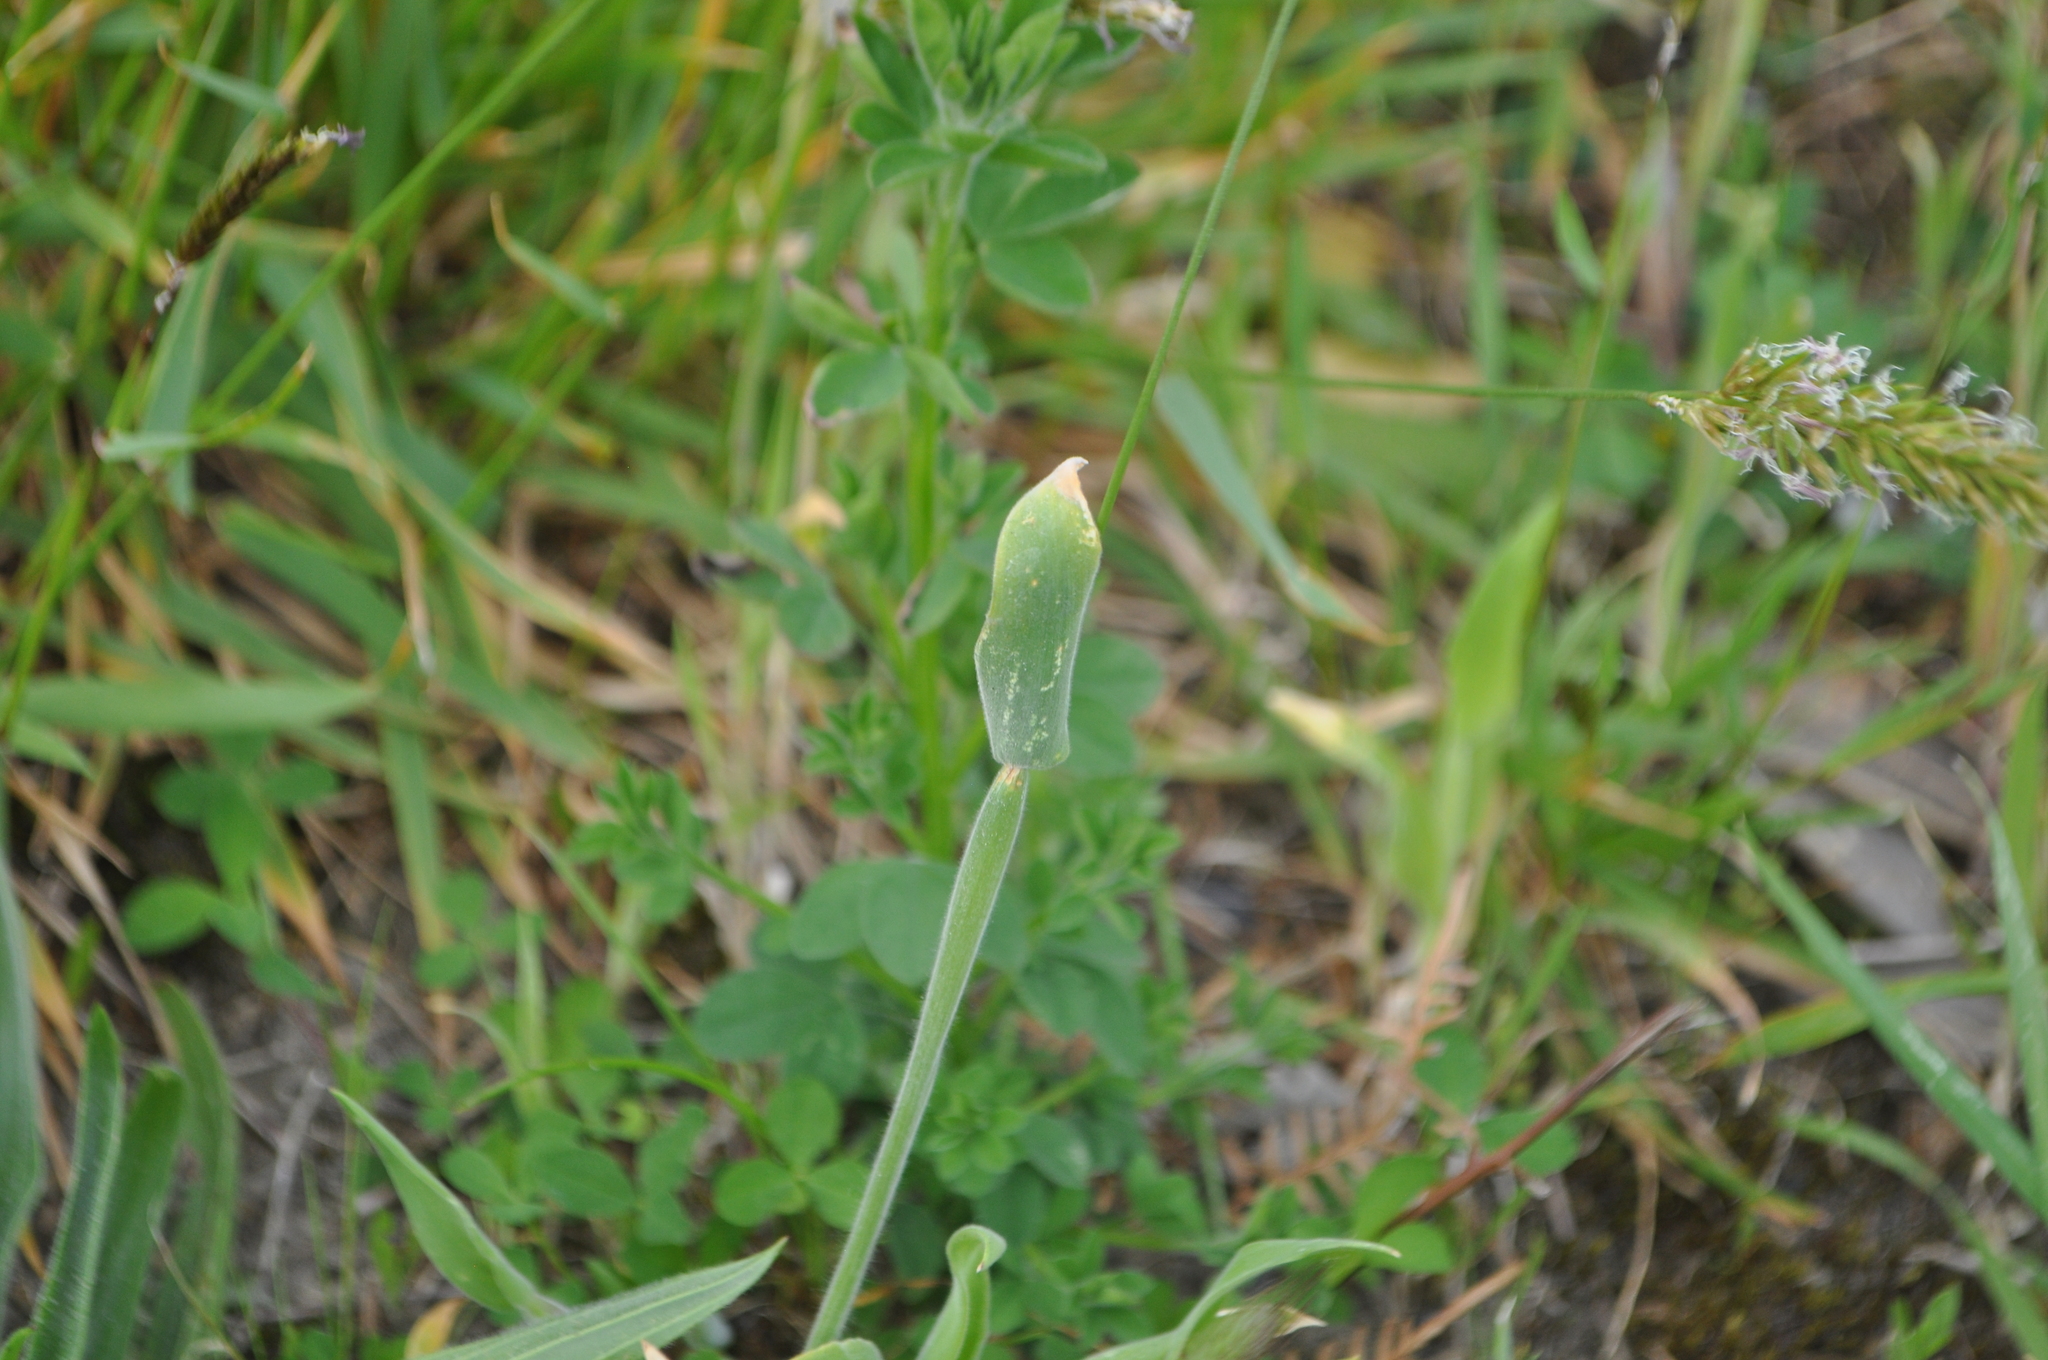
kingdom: Plantae
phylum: Tracheophyta
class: Liliopsida
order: Poales
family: Poaceae
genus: Lagurus
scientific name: Lagurus ovatus
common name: Hare's-tail
